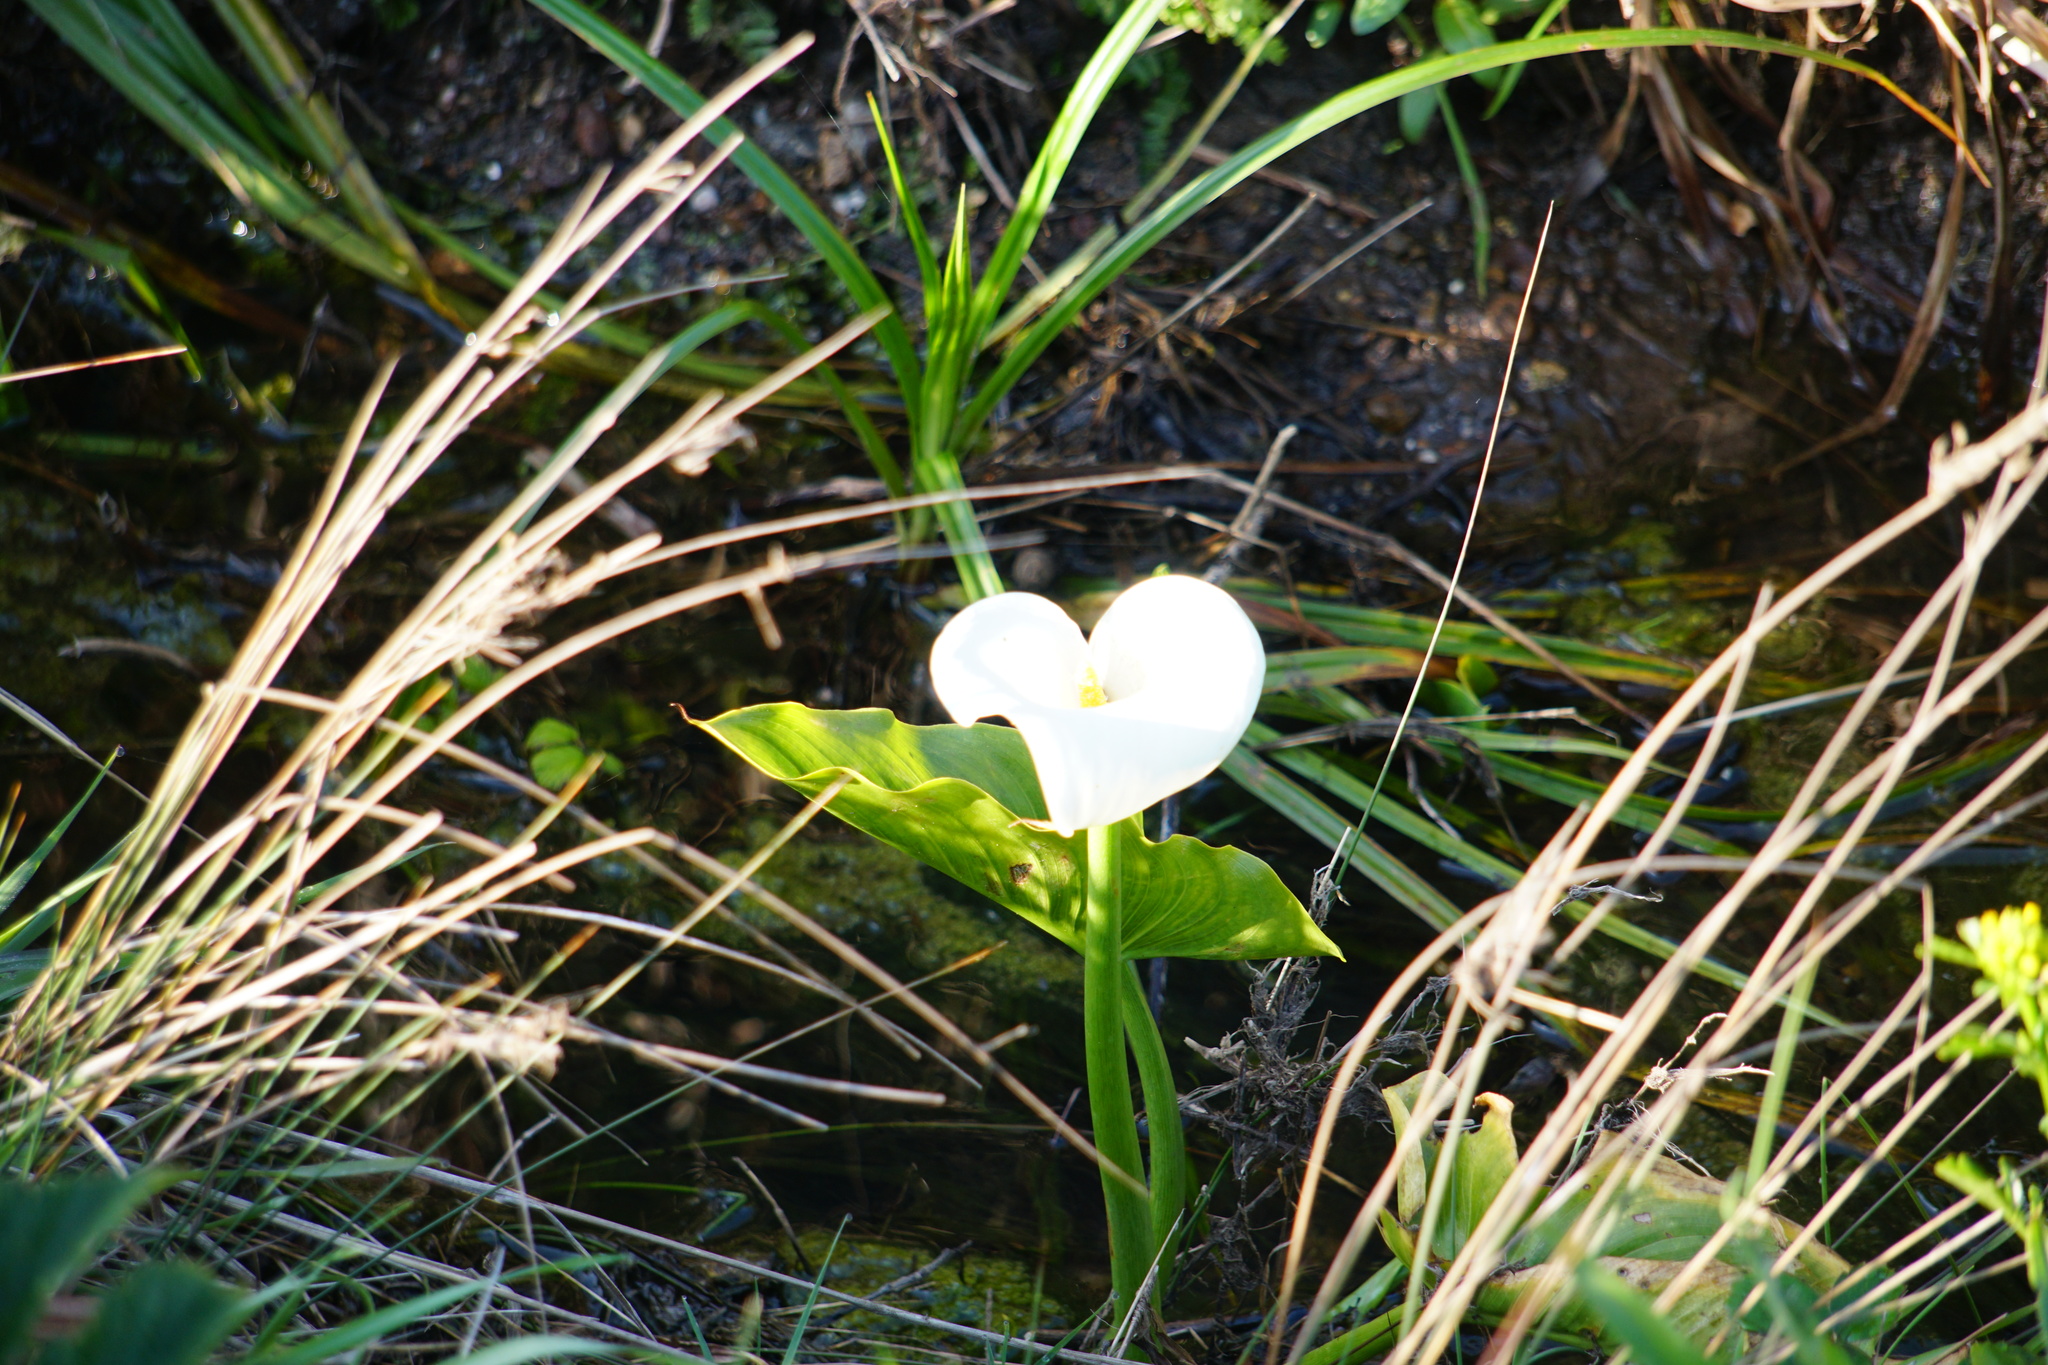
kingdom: Plantae
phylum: Tracheophyta
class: Liliopsida
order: Alismatales
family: Araceae
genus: Zantedeschia
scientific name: Zantedeschia aethiopica
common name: Altar-lily
